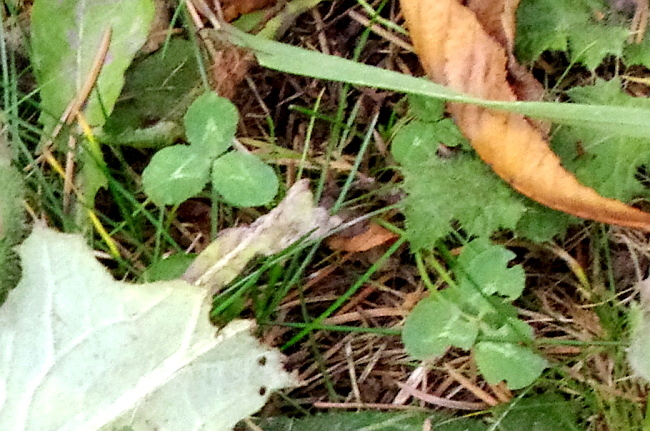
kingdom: Plantae
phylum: Tracheophyta
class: Magnoliopsida
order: Fabales
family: Fabaceae
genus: Trifolium
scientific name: Trifolium repens
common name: White clover
